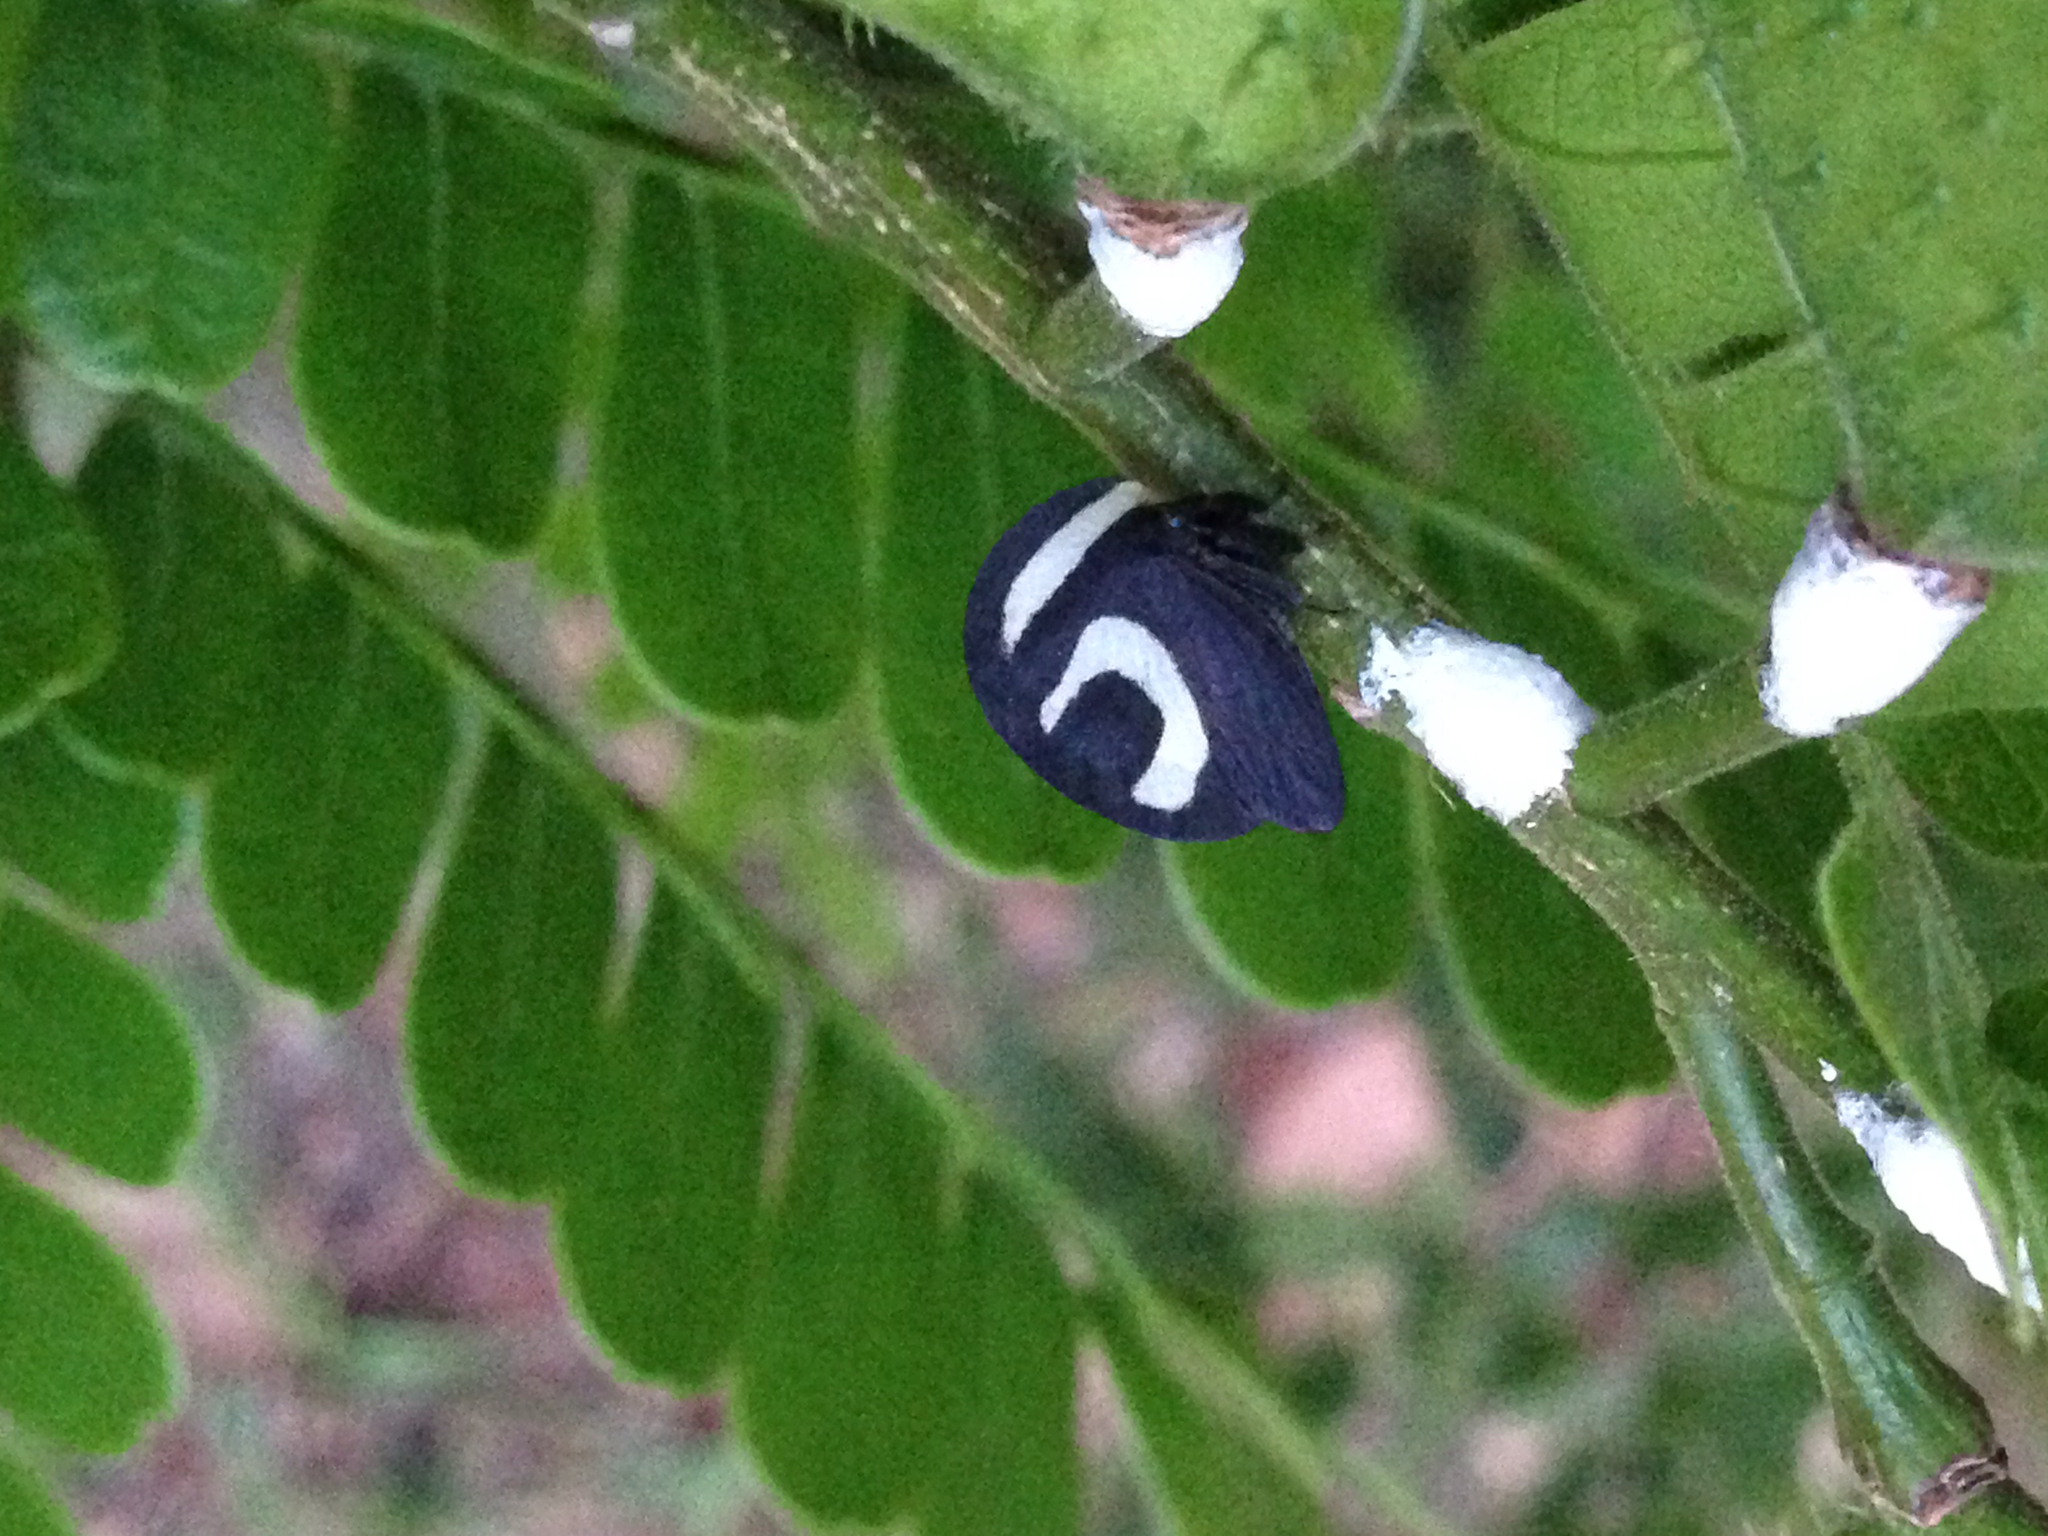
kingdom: Animalia
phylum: Arthropoda
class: Insecta
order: Hemiptera
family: Membracidae
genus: Membracis
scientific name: Membracis foliatafasciata
